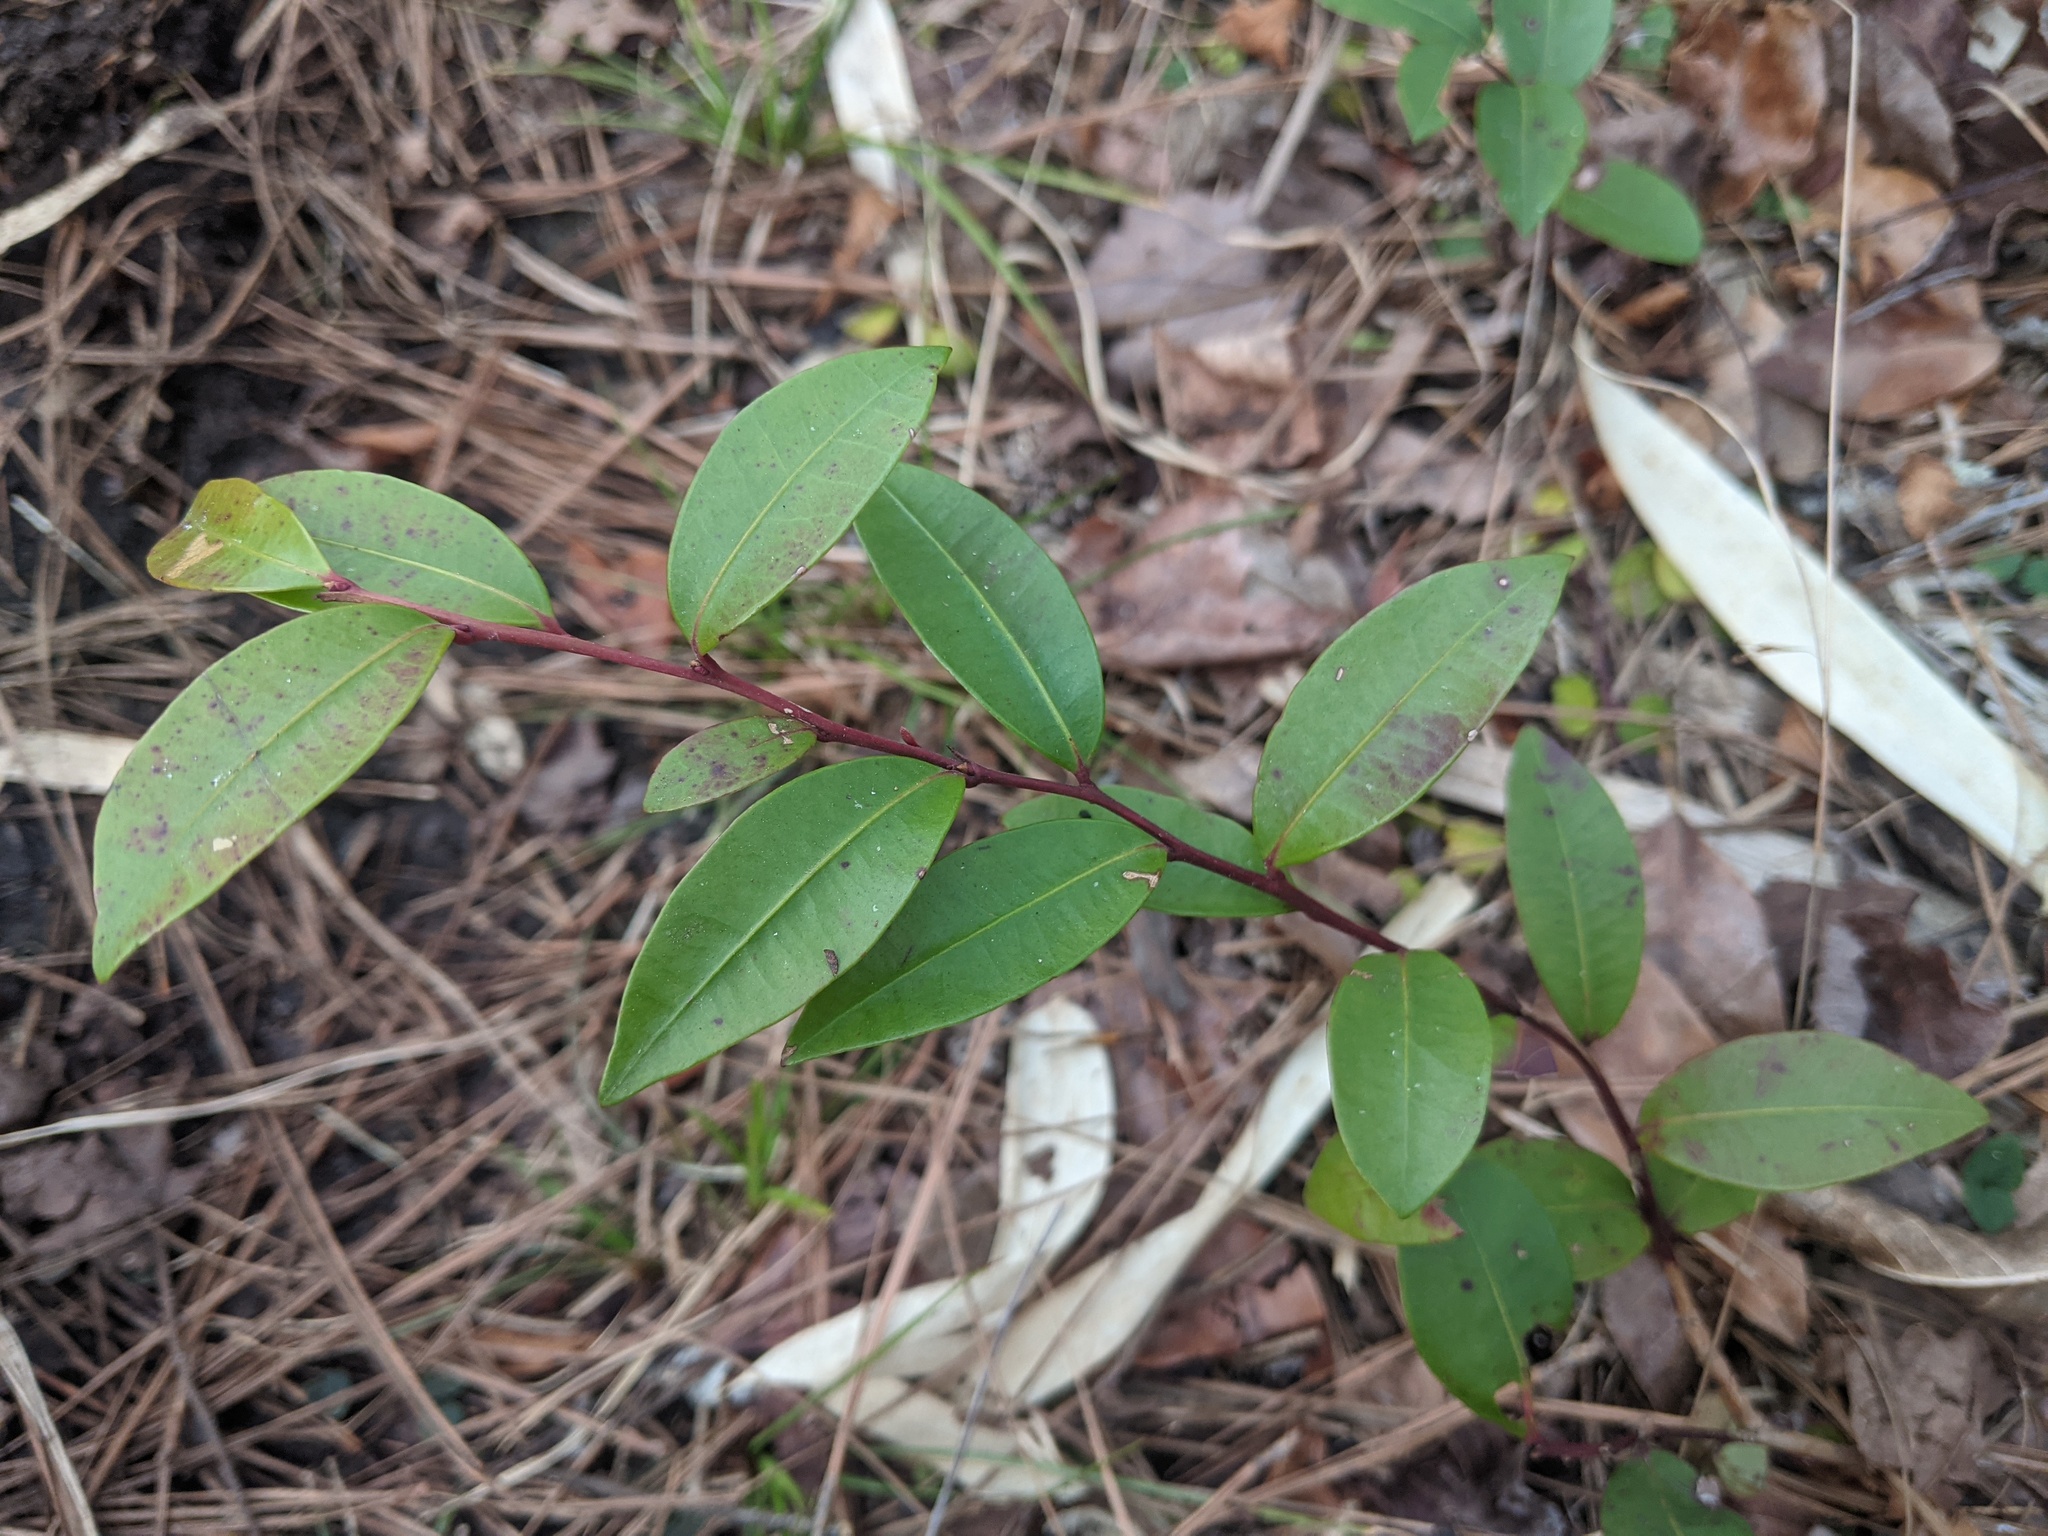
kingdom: Plantae
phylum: Tracheophyta
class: Magnoliopsida
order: Ericales
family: Ericaceae
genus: Lyonia
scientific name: Lyonia lucida
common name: Fetterbush
